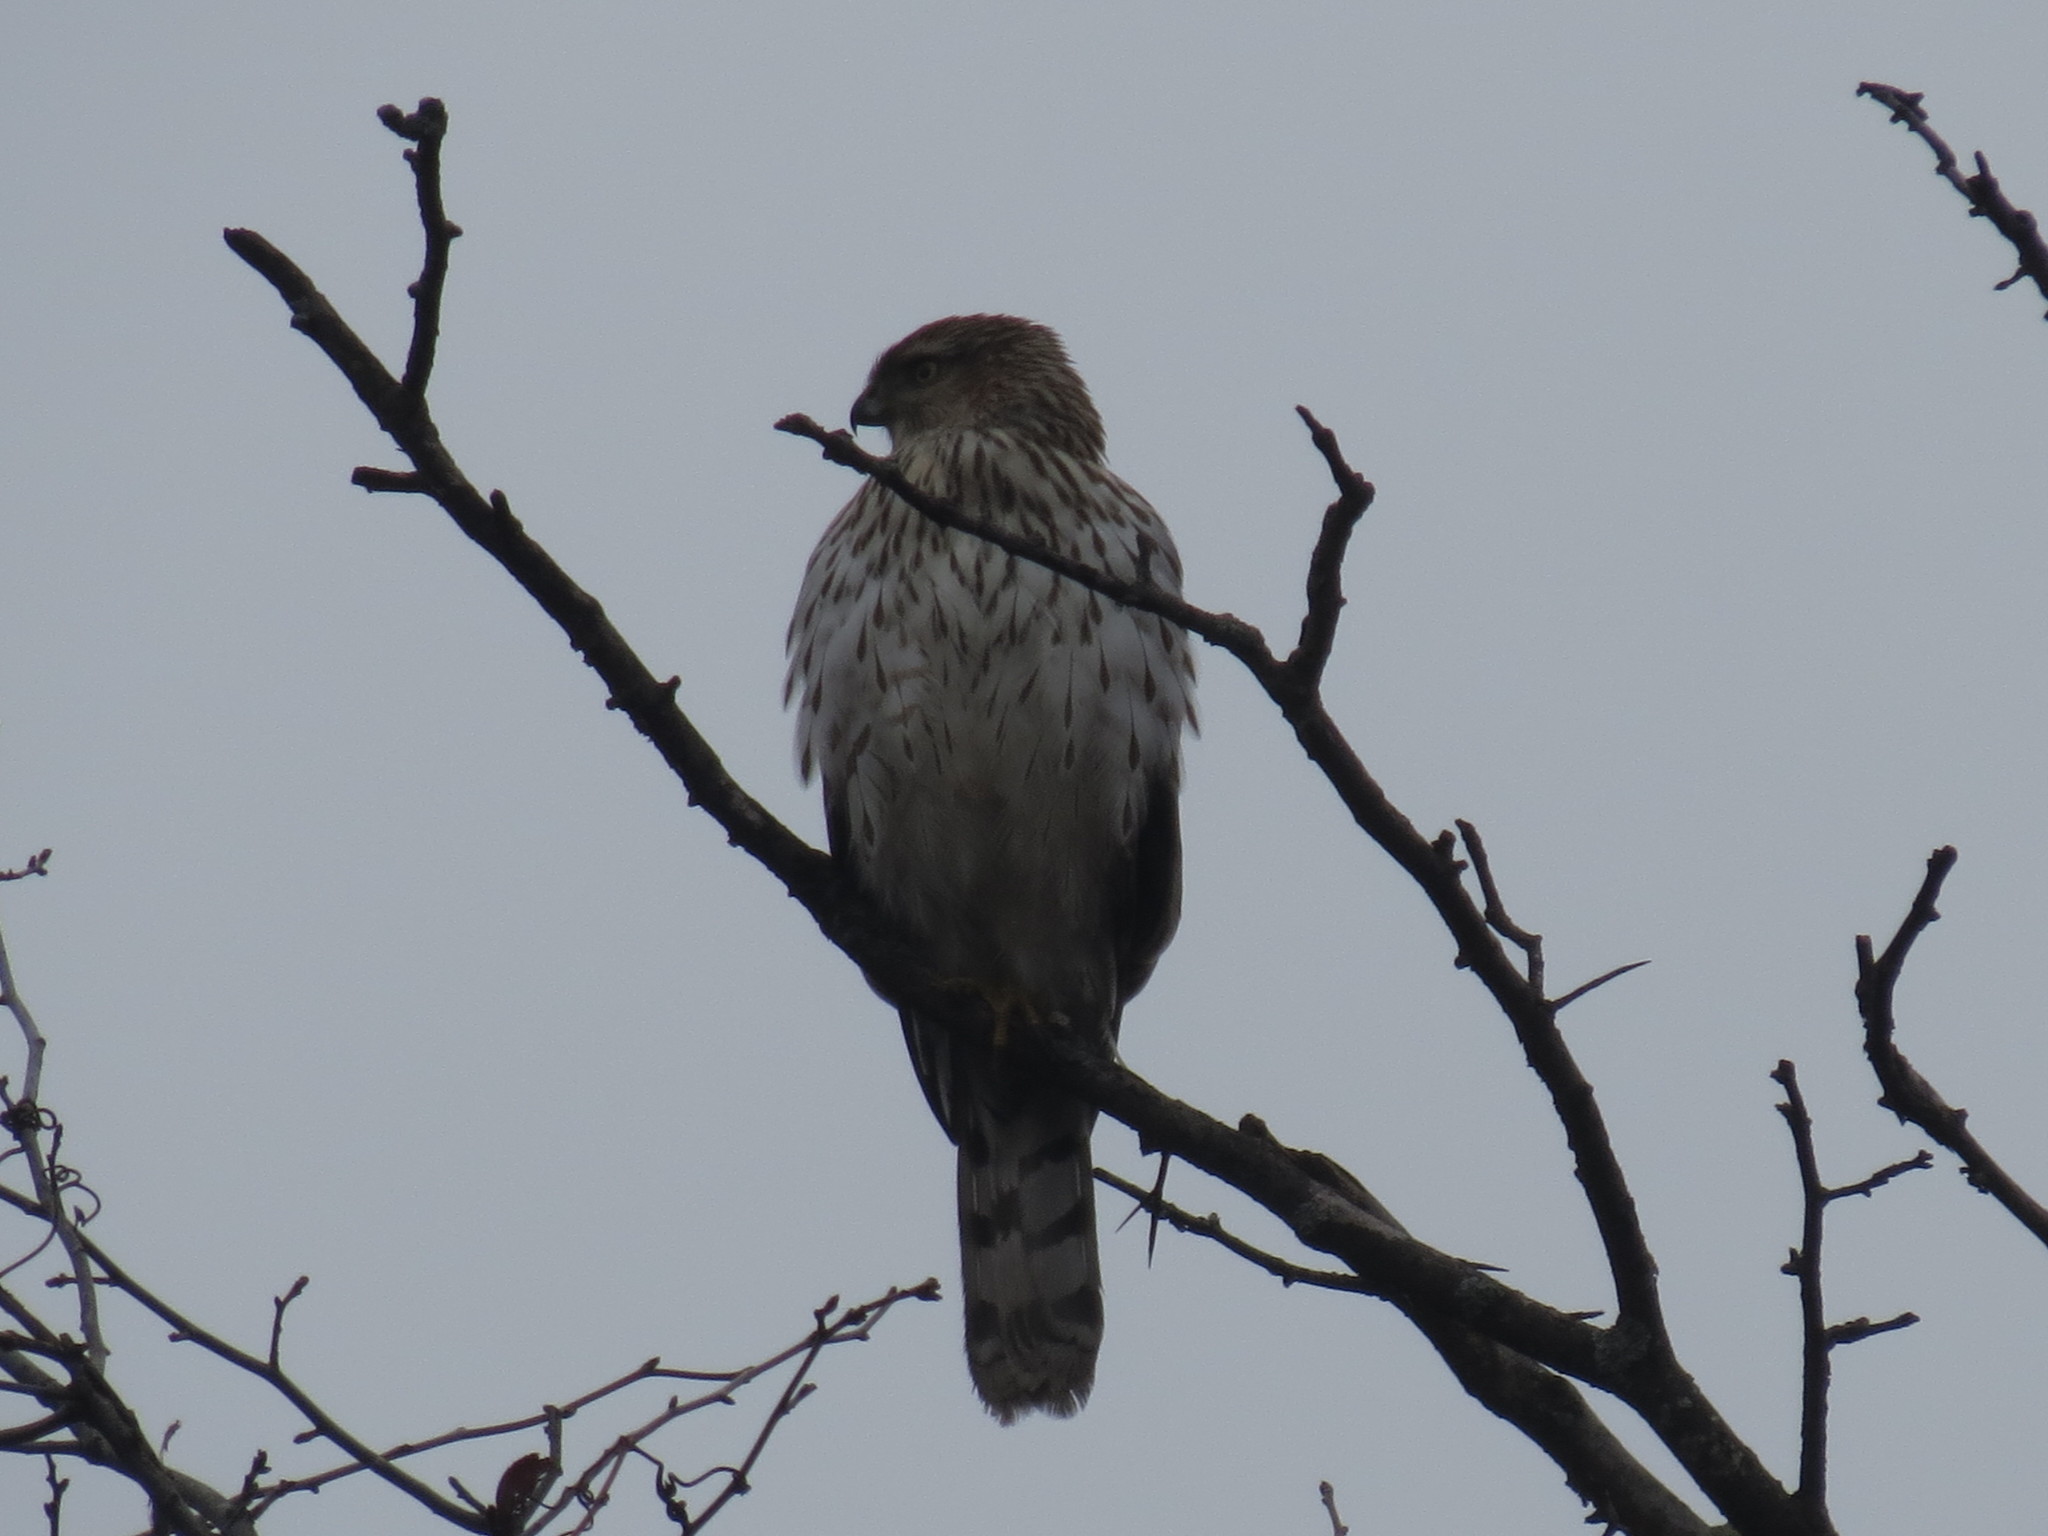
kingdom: Animalia
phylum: Chordata
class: Aves
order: Accipitriformes
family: Accipitridae
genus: Accipiter
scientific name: Accipiter cooperii
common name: Cooper's hawk
